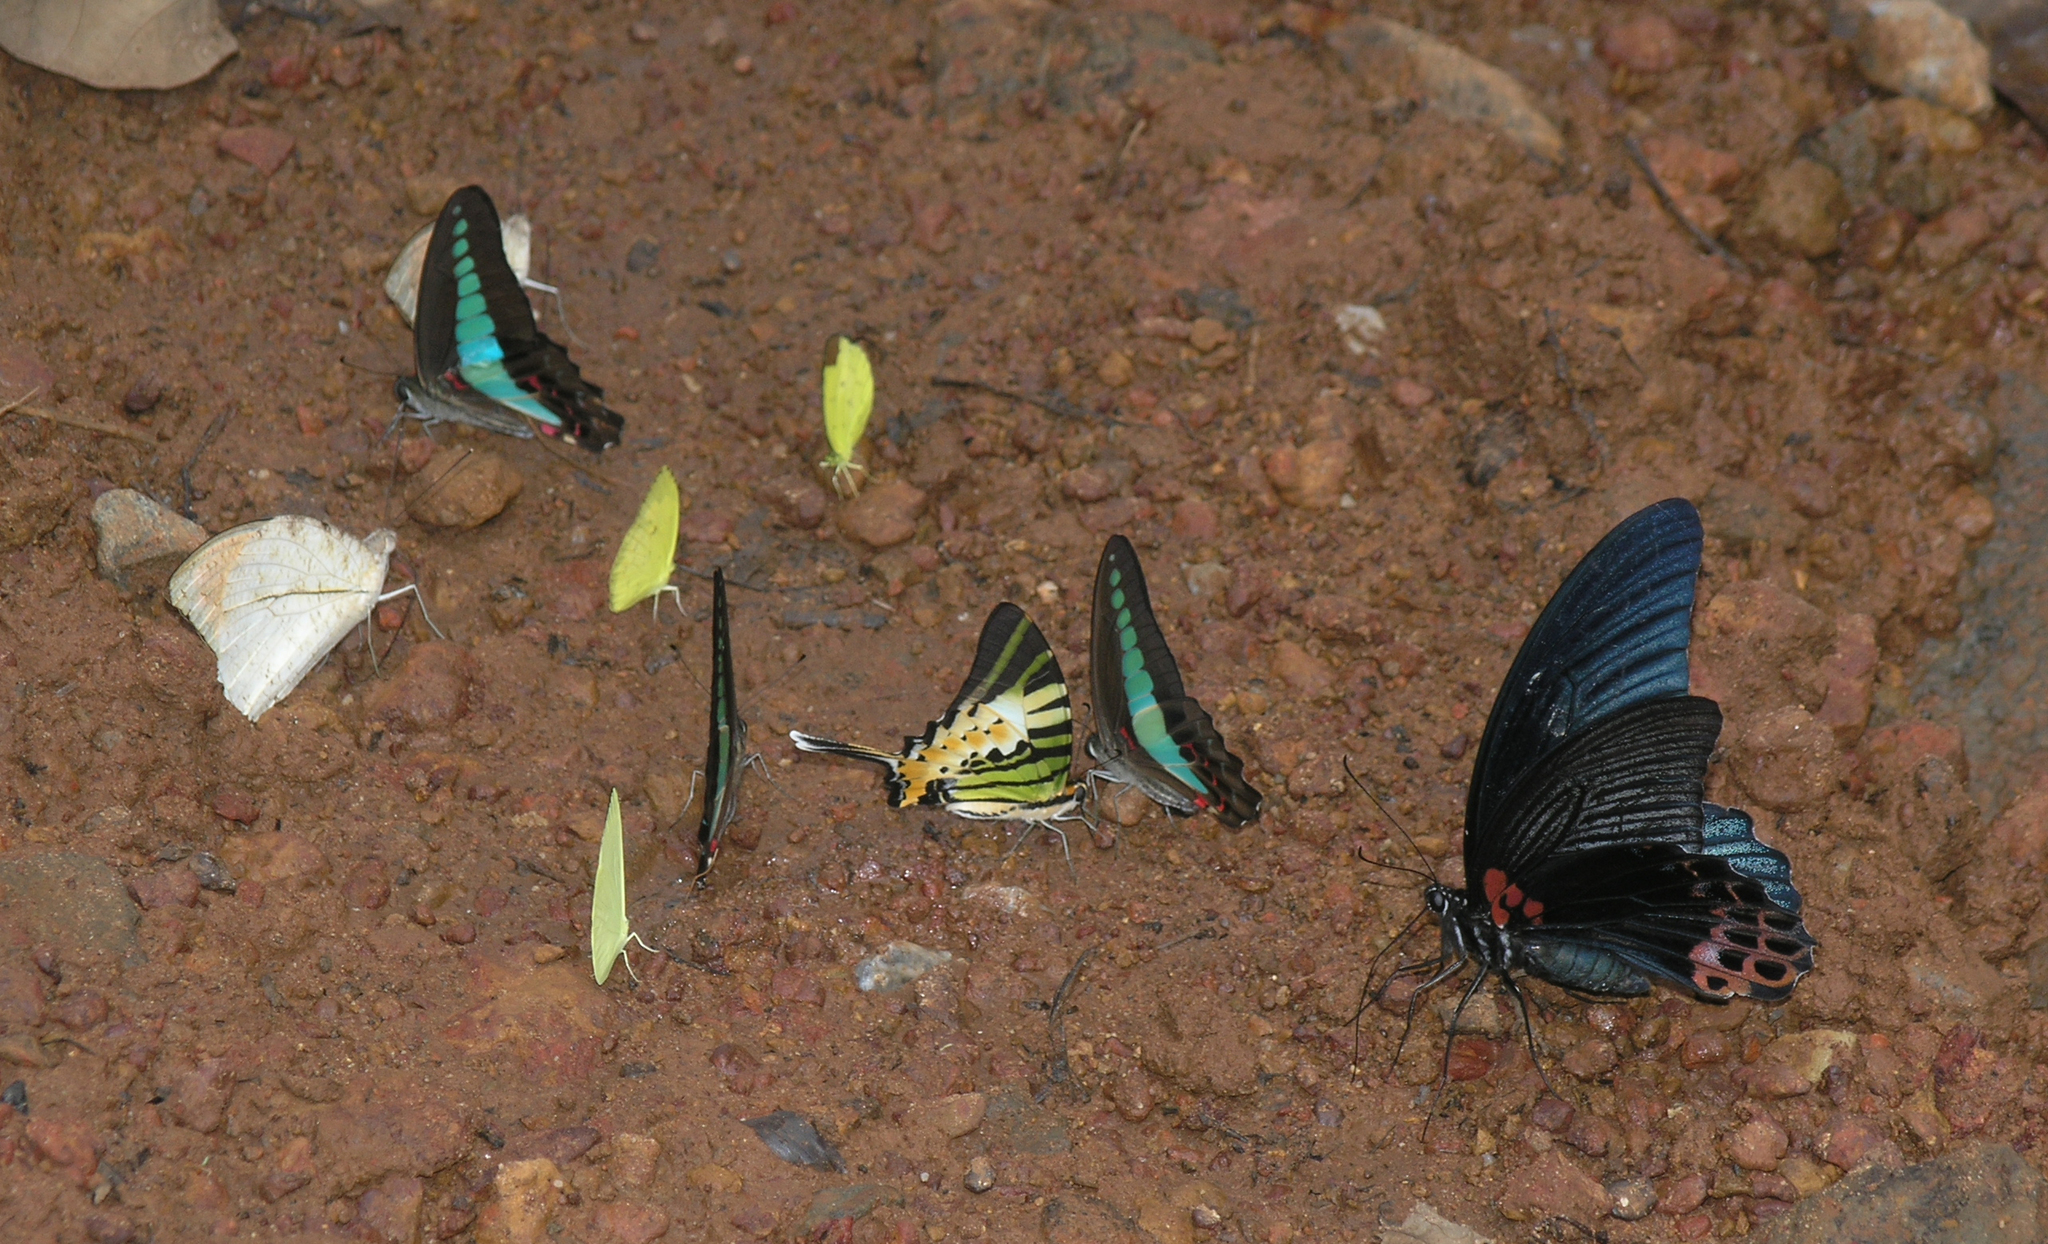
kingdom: Fungi
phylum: Ascomycota
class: Sordariomycetes
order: Microascales
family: Microascaceae
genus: Graphium
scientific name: Graphium sarpedon
